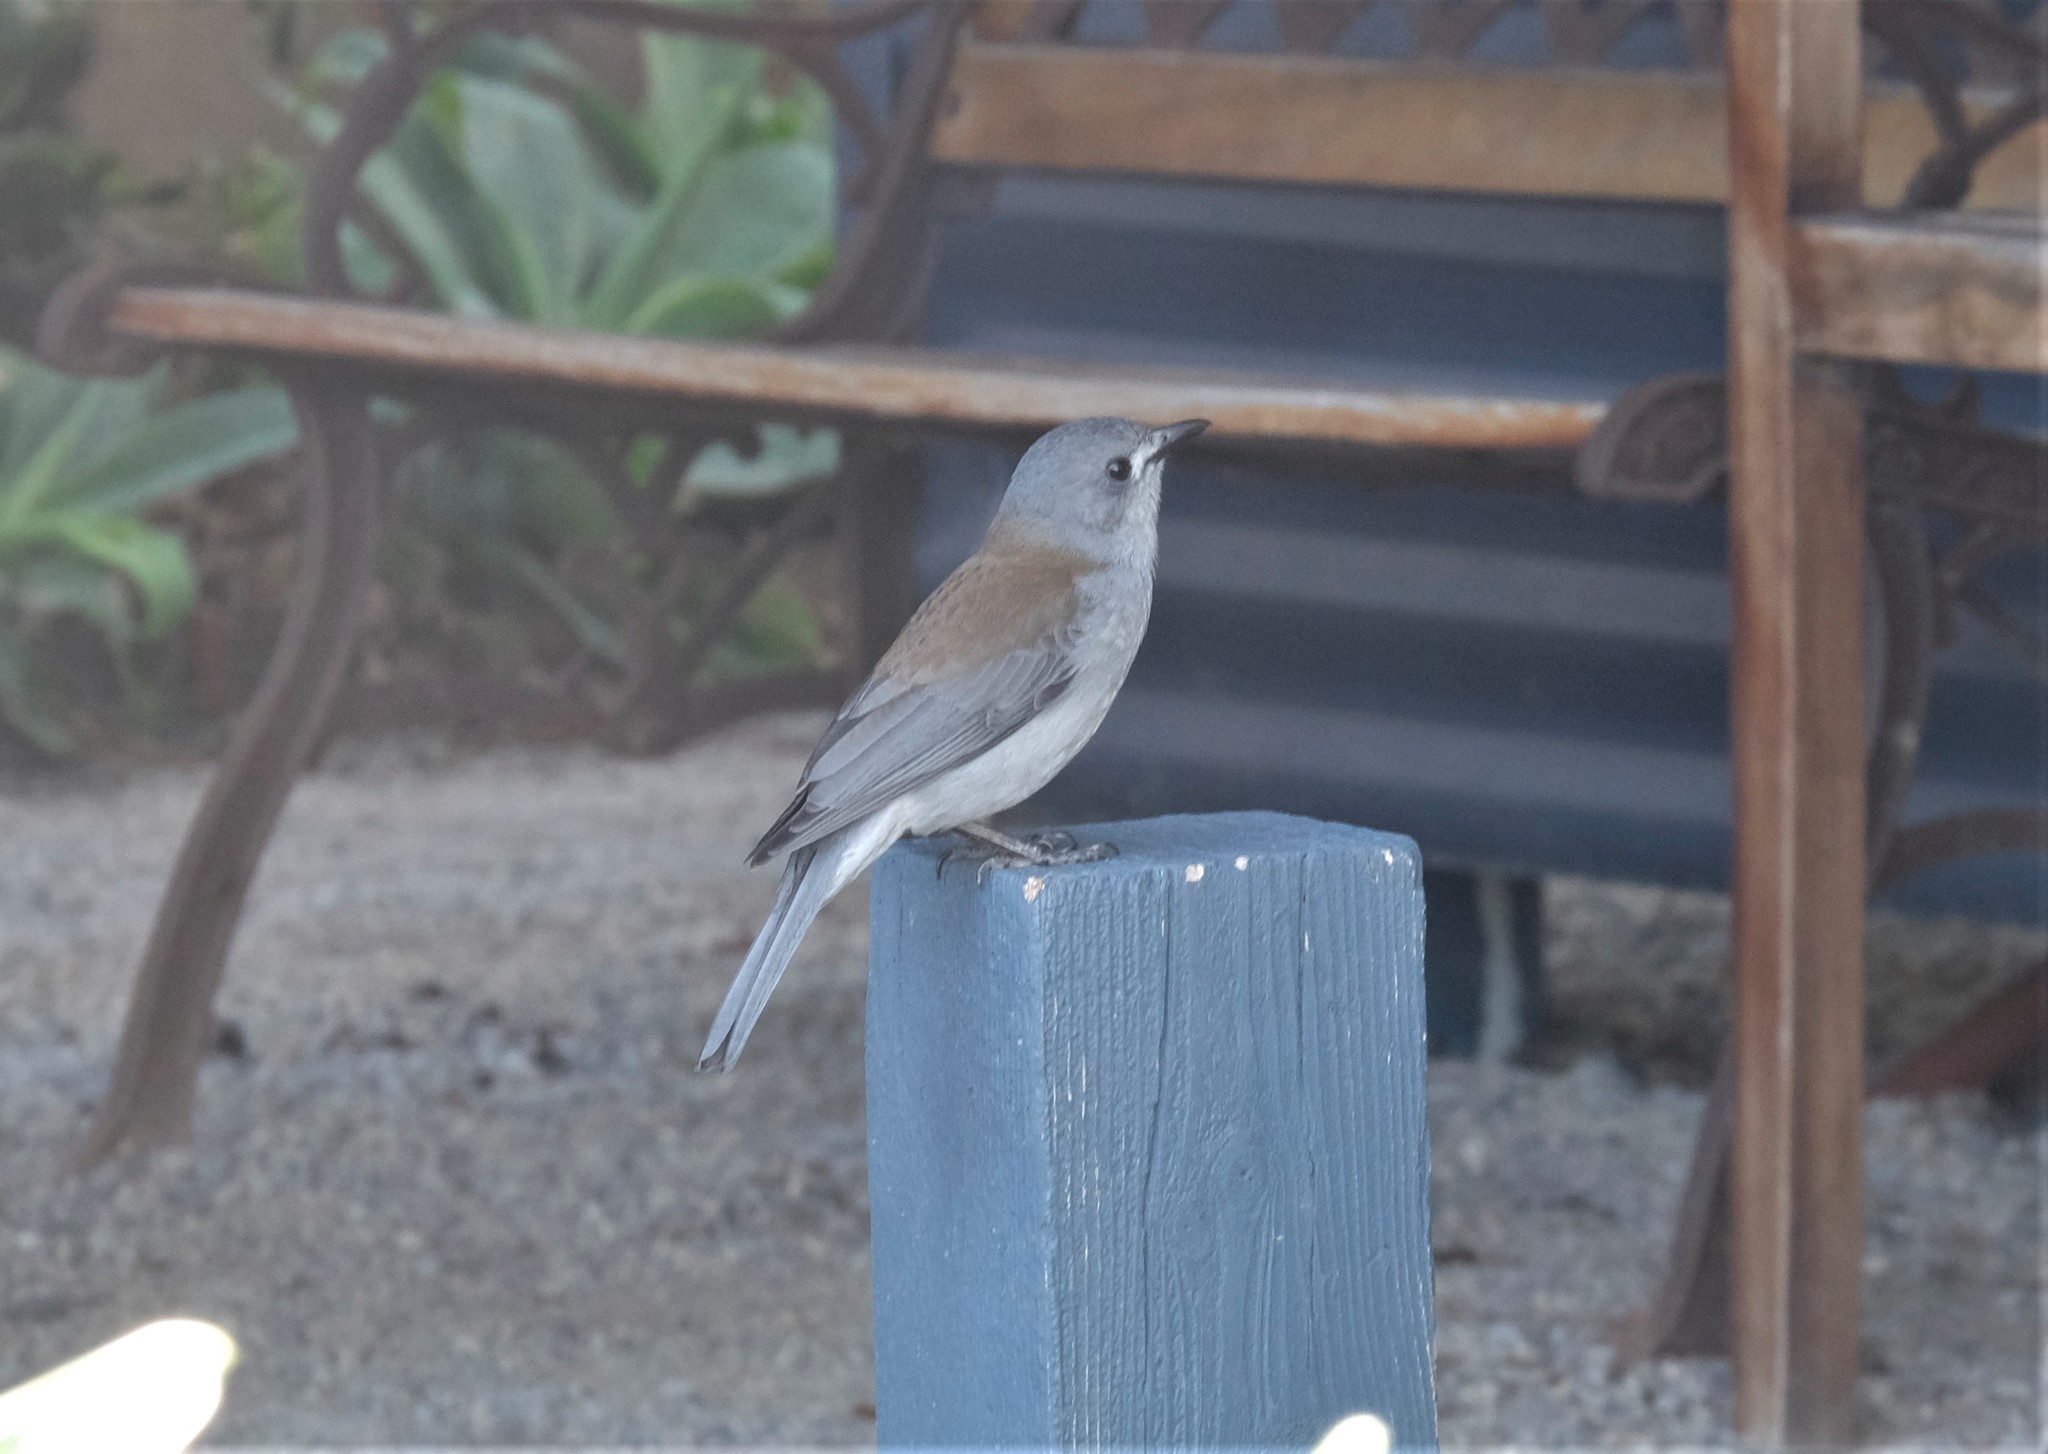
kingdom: Animalia
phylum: Chordata
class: Aves
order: Passeriformes
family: Pachycephalidae
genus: Colluricincla
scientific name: Colluricincla harmonica
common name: Grey shrikethrush
